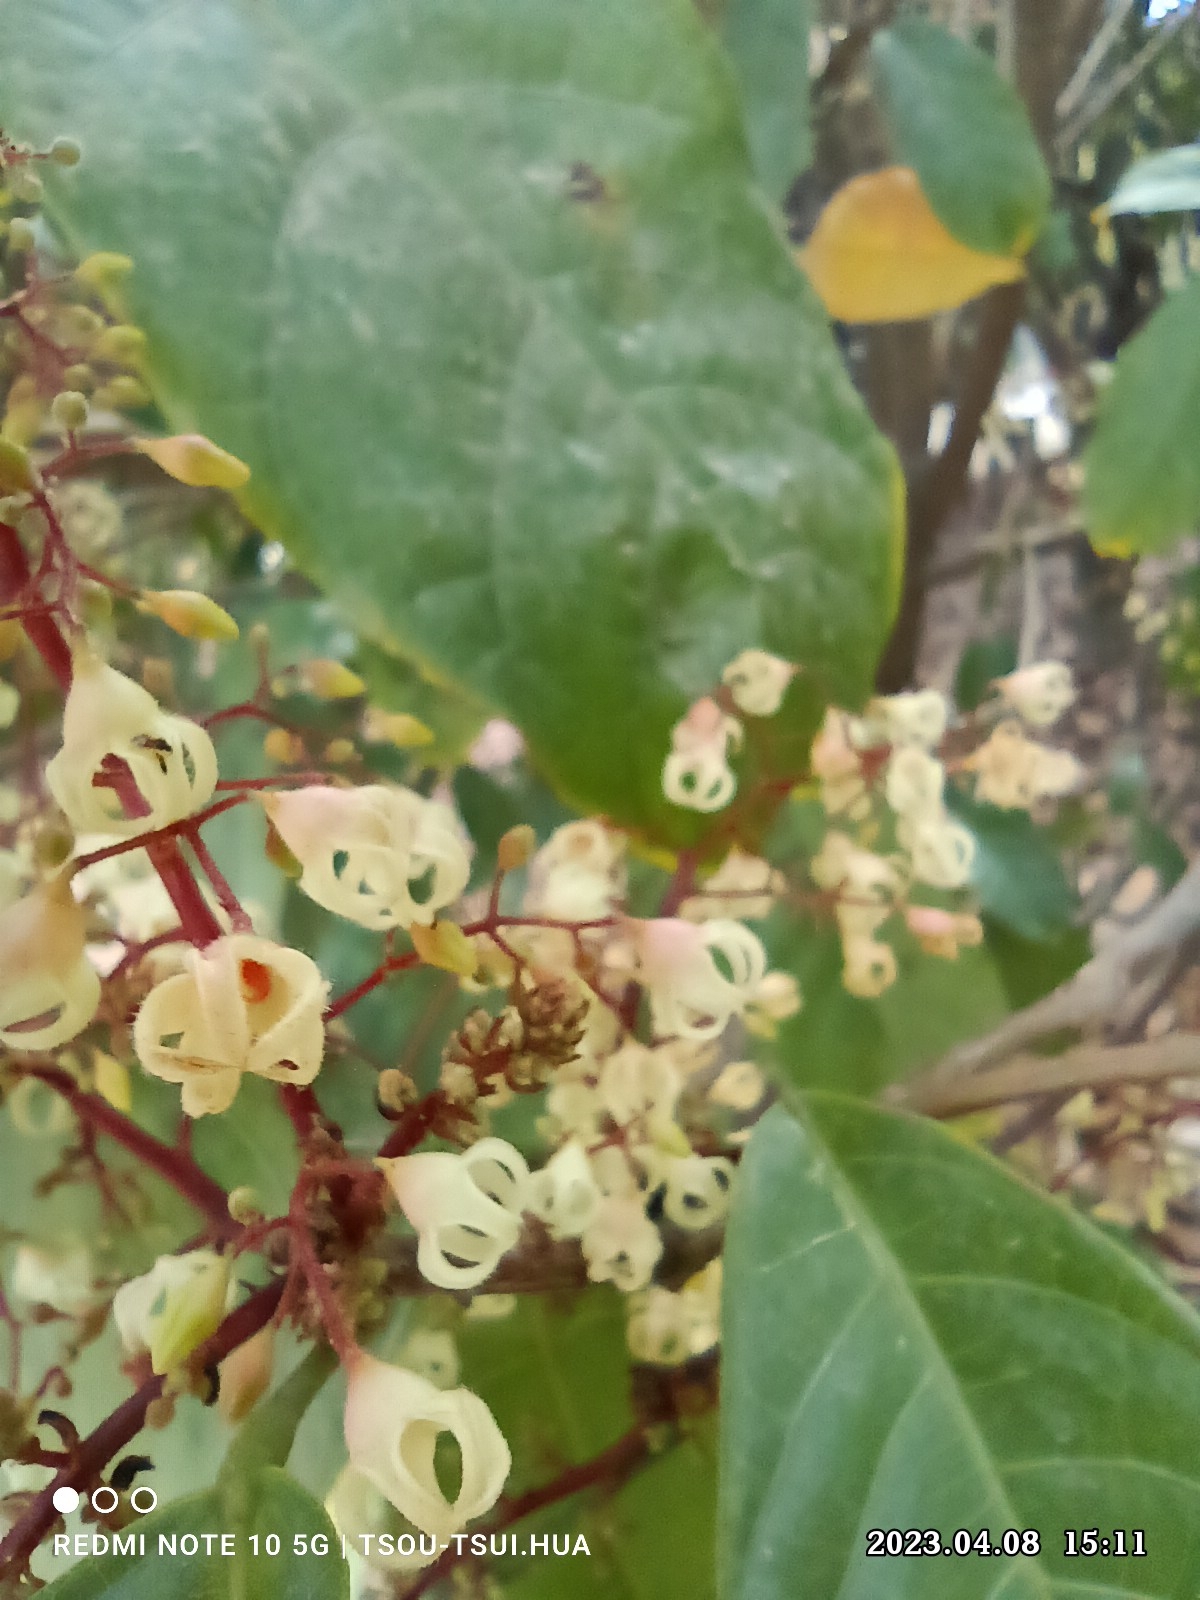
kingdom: Plantae
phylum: Tracheophyta
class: Magnoliopsida
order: Malvales
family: Malvaceae
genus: Sterculia
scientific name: Sterculia monosperma
